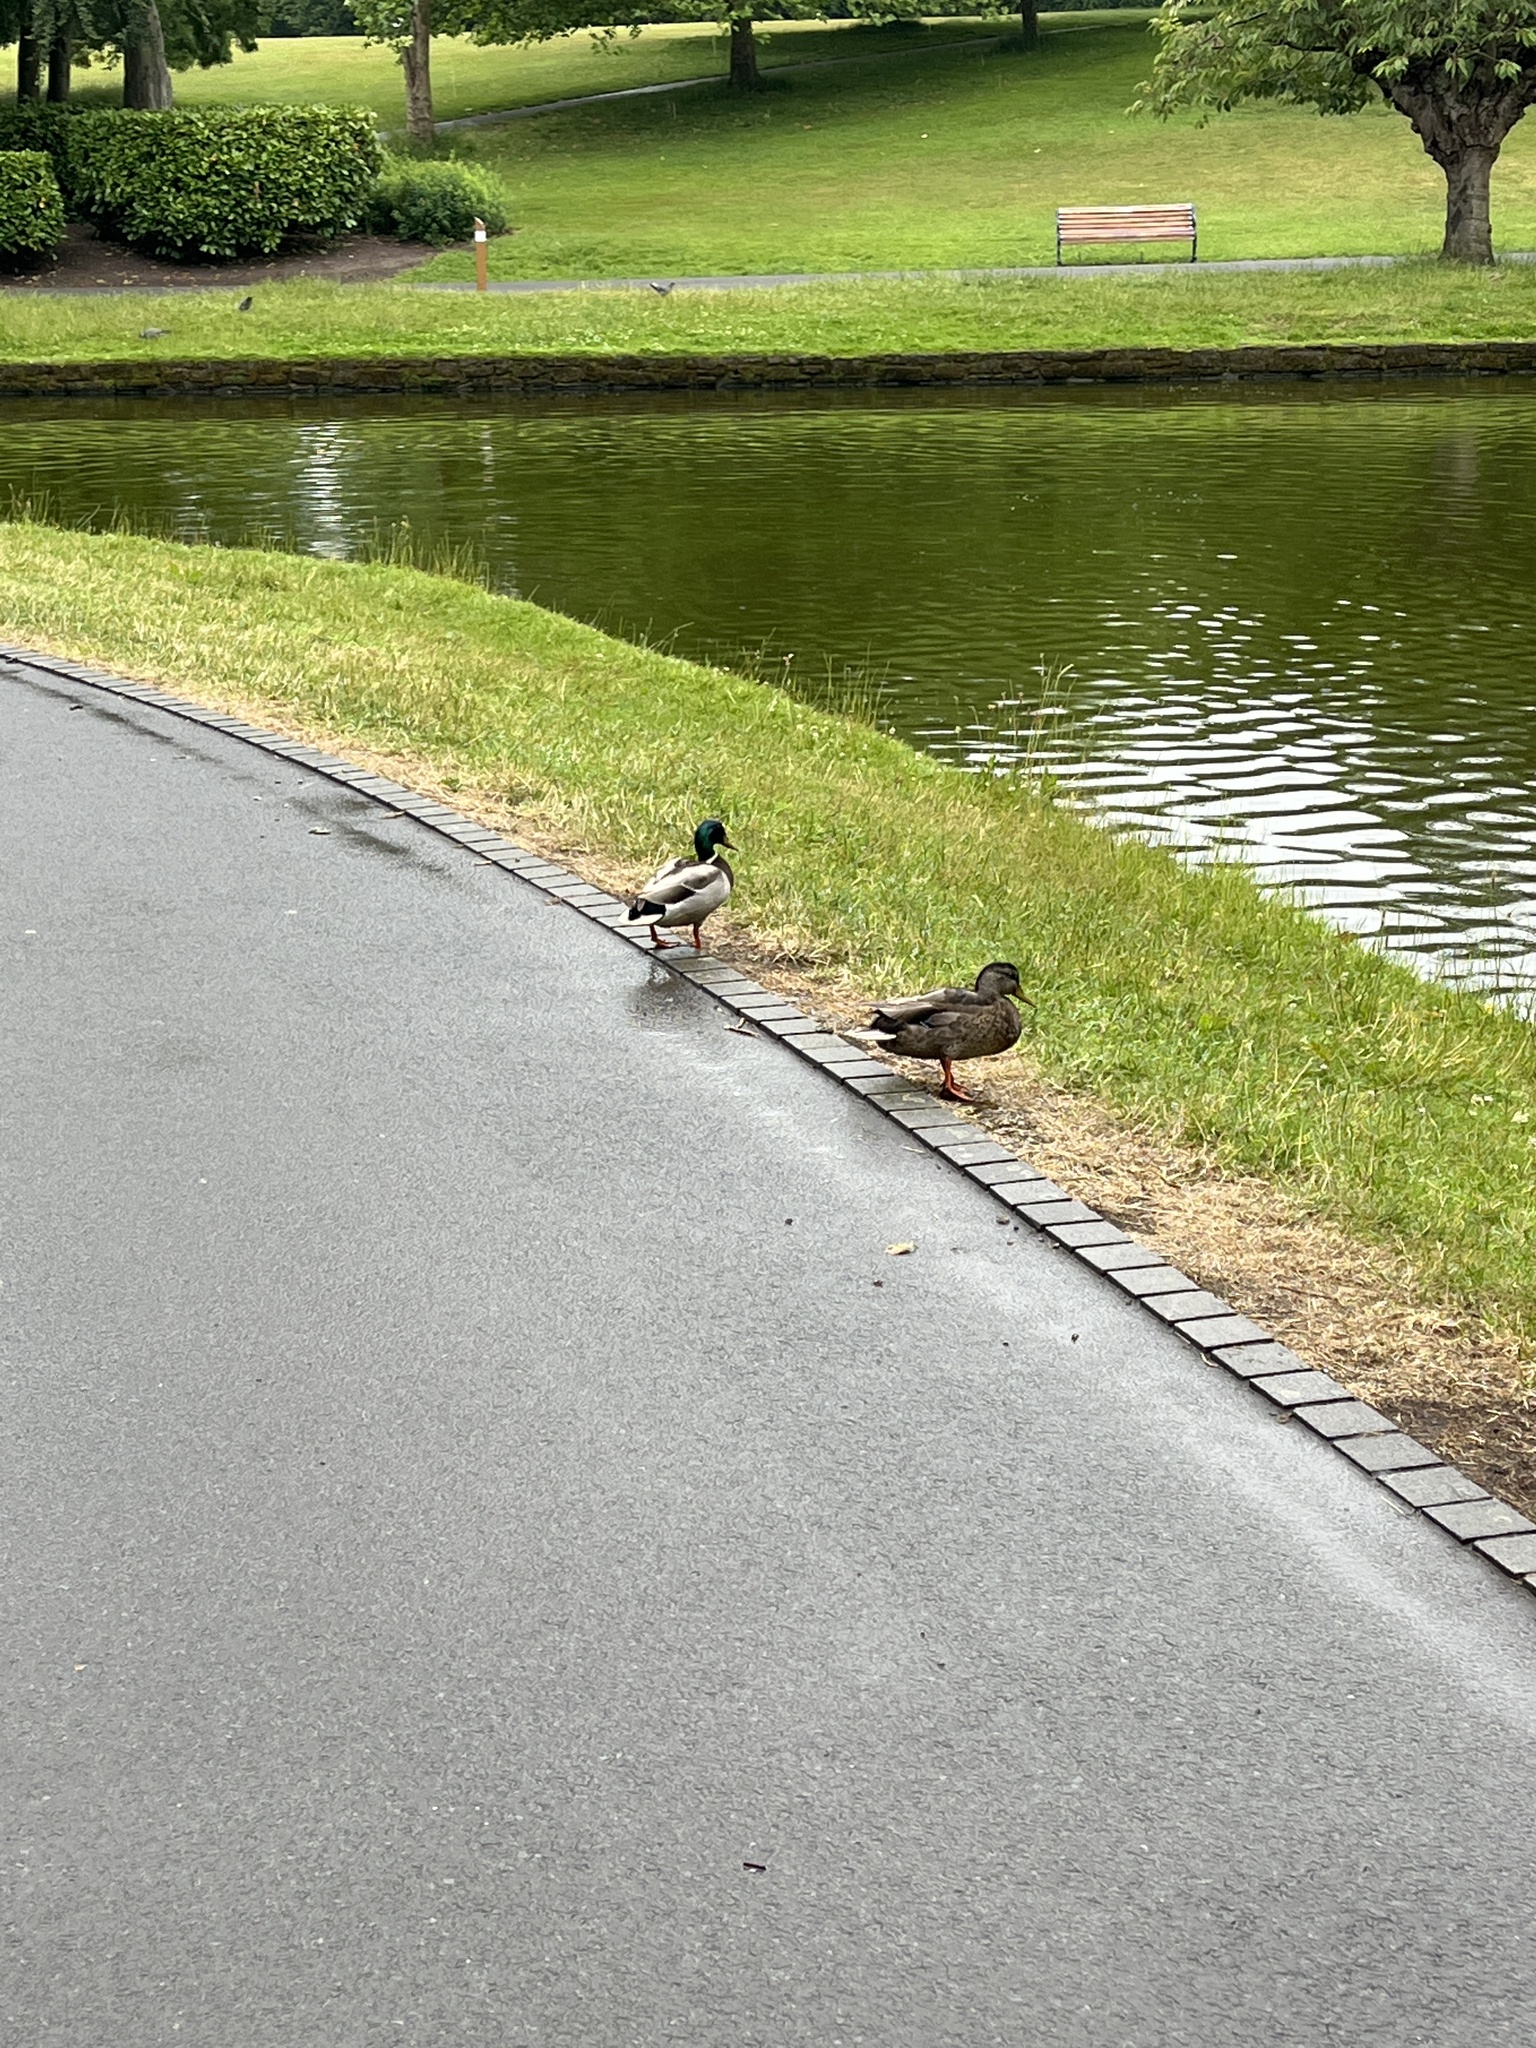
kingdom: Animalia
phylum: Chordata
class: Aves
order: Anseriformes
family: Anatidae
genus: Anas
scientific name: Anas platyrhynchos
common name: Mallard
